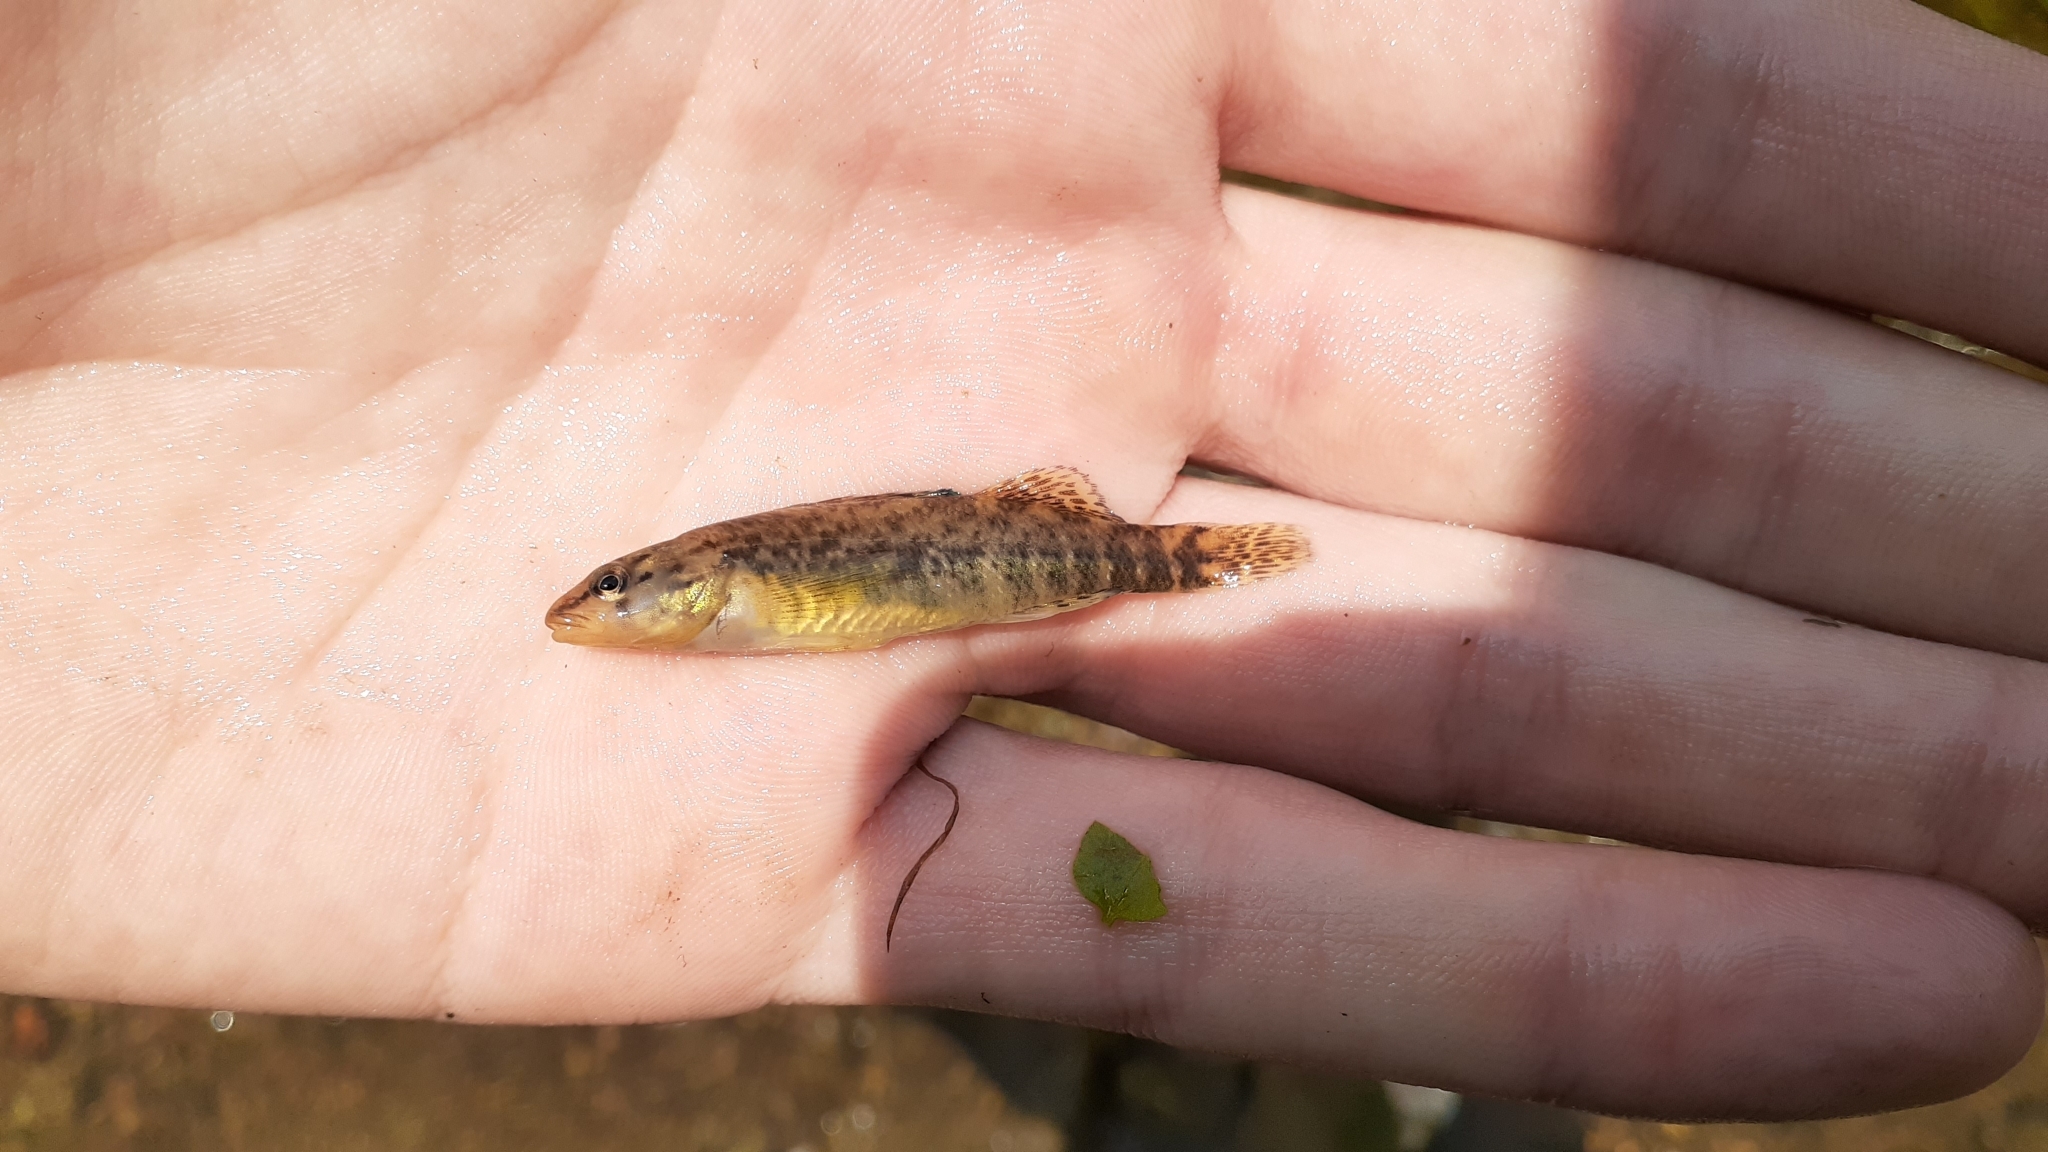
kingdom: Animalia
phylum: Chordata
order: Perciformes
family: Percidae
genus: Etheostoma
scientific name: Etheostoma caeruleum
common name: Rainbow darter
